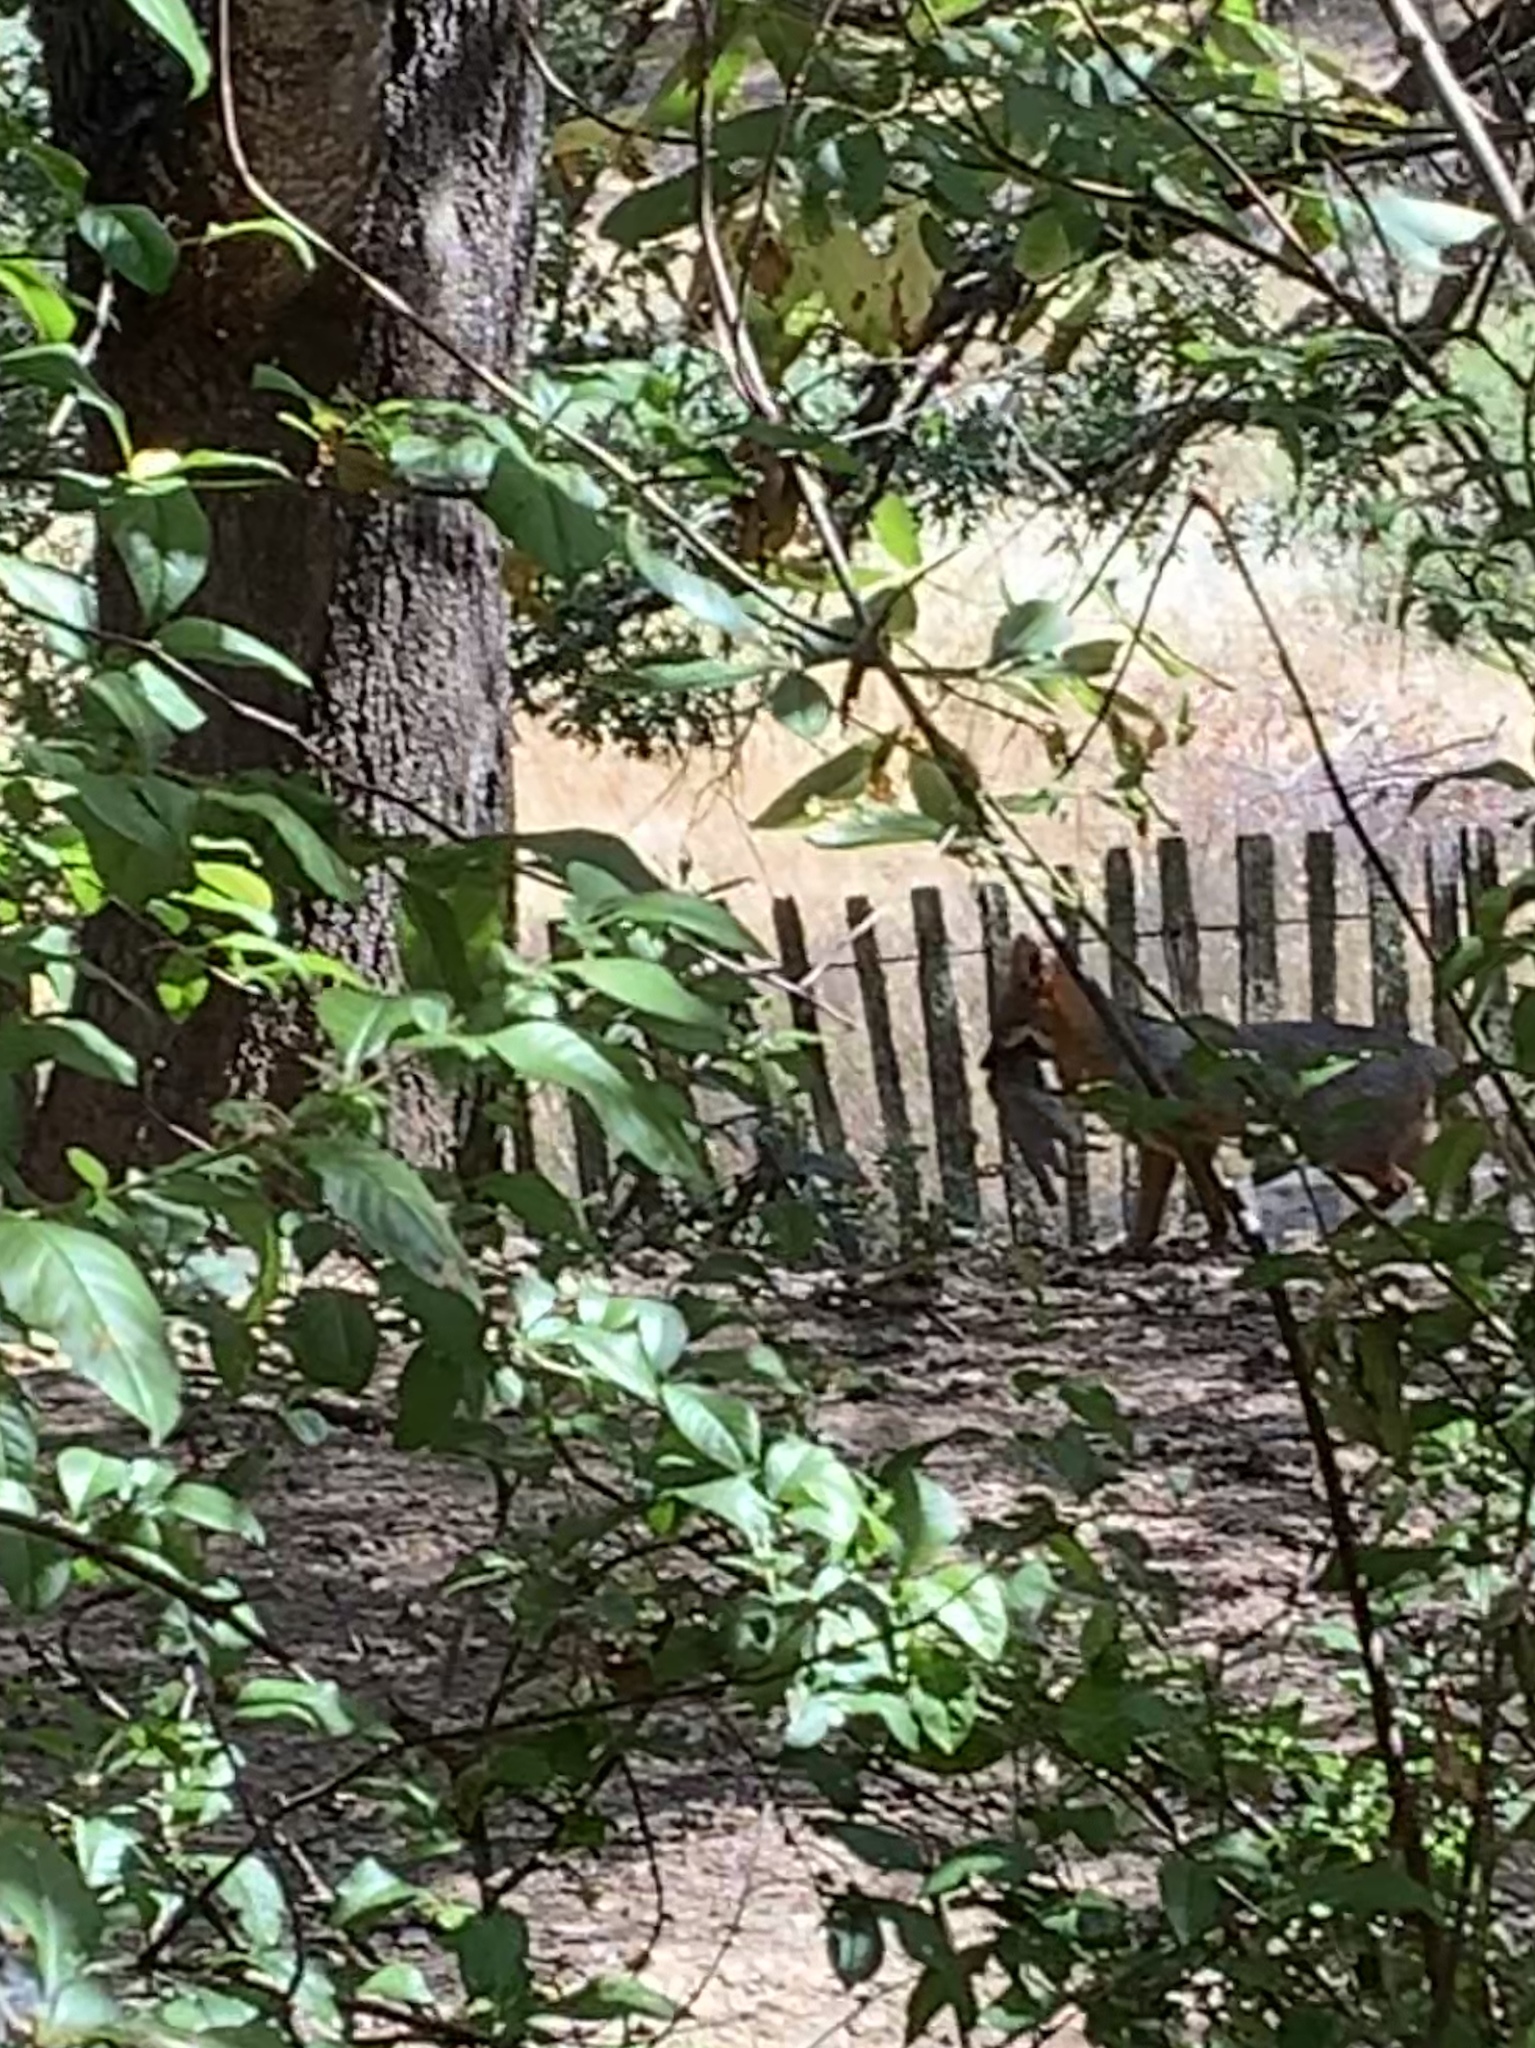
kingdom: Animalia
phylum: Chordata
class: Mammalia
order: Carnivora
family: Canidae
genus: Urocyon
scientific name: Urocyon cinereoargenteus
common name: Gray fox
